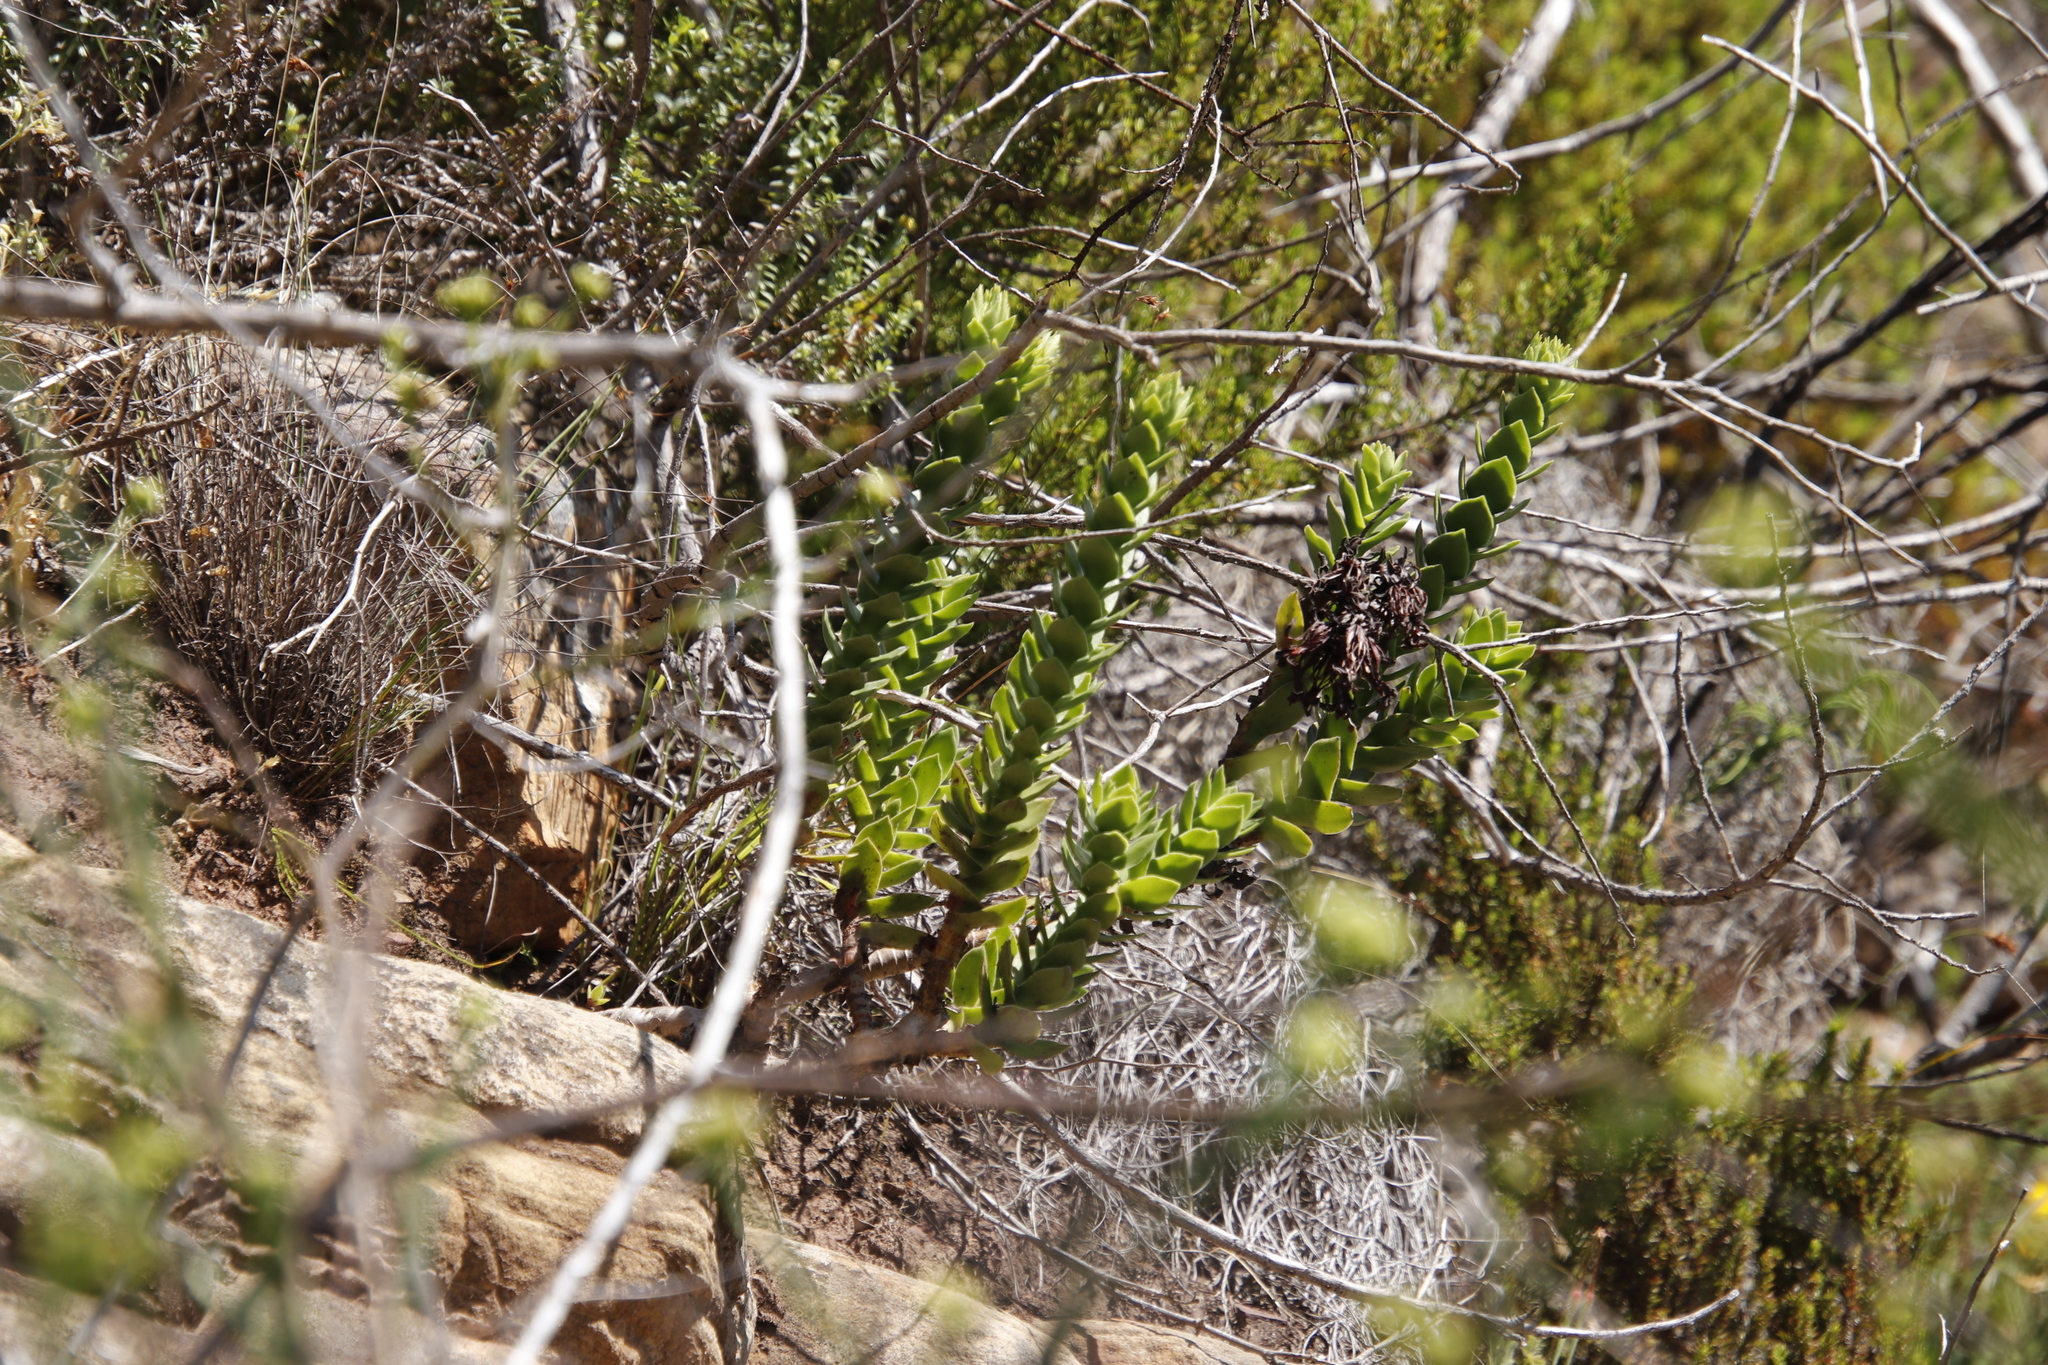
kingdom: Plantae
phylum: Tracheophyta
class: Magnoliopsida
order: Saxifragales
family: Crassulaceae
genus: Crassula
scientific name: Crassula coccinea
